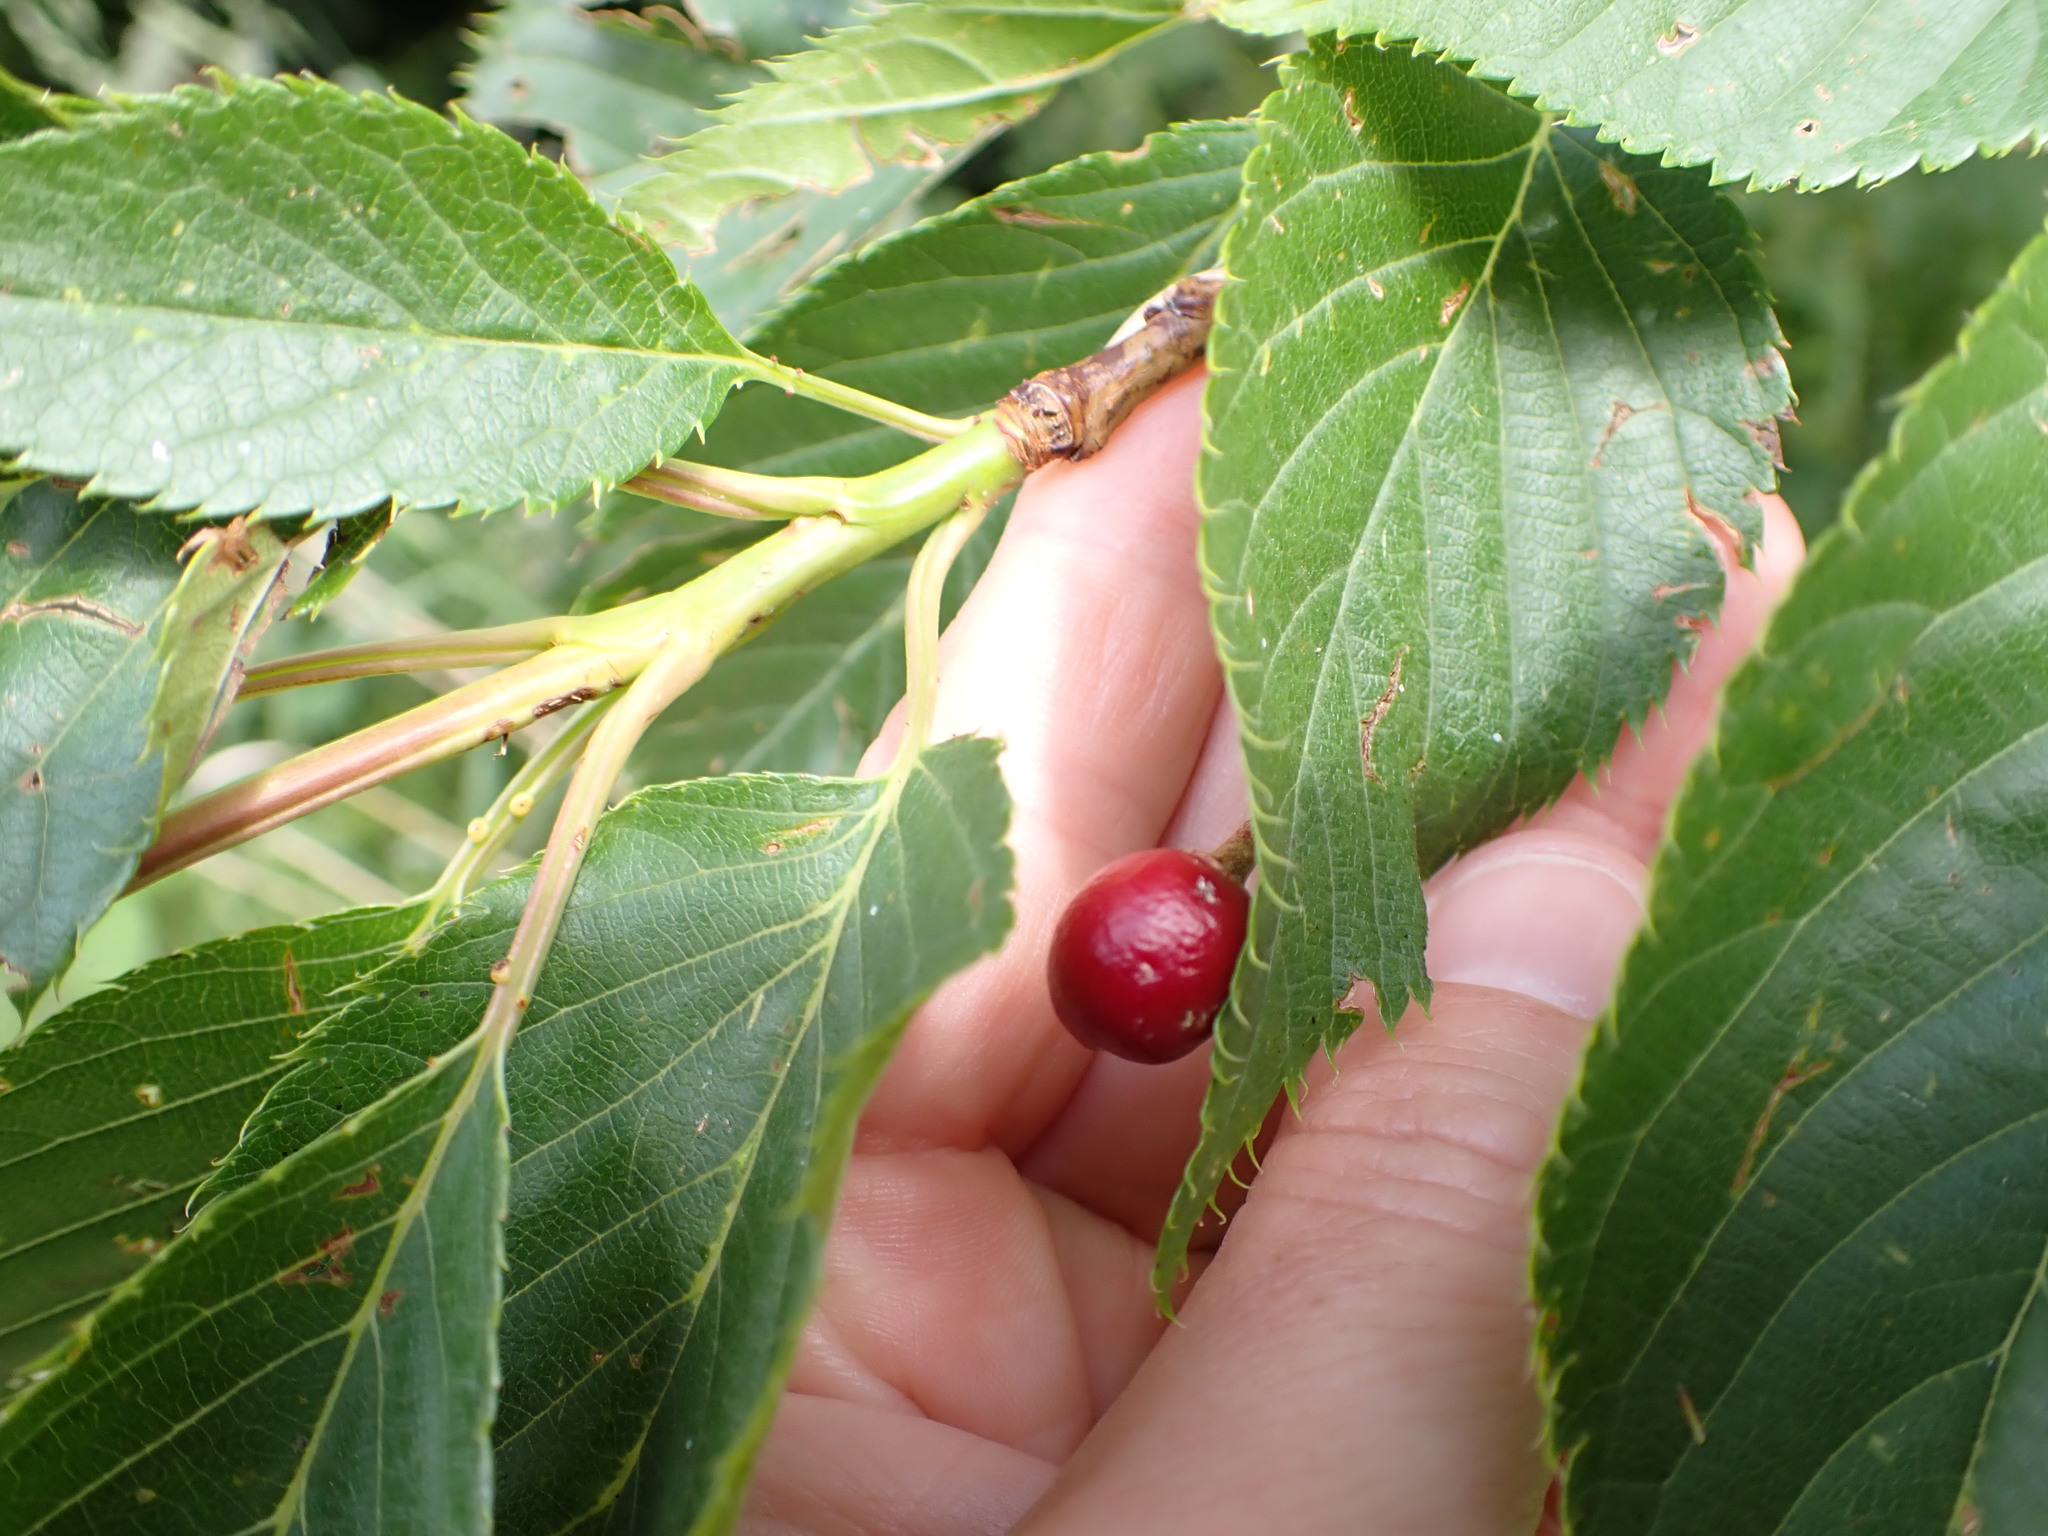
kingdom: Plantae
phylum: Tracheophyta
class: Magnoliopsida
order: Rosales
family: Rosaceae
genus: Prunus
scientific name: Prunus avium
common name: Sweet cherry
